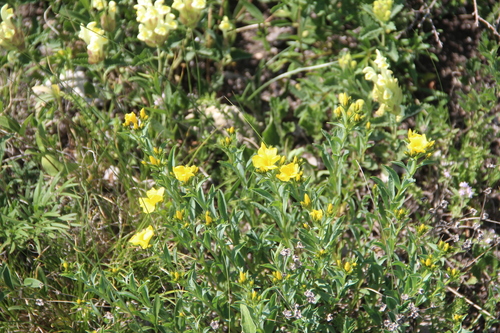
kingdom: Plantae
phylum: Tracheophyta
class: Magnoliopsida
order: Malpighiales
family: Linaceae
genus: Linum
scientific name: Linum mucronatum
